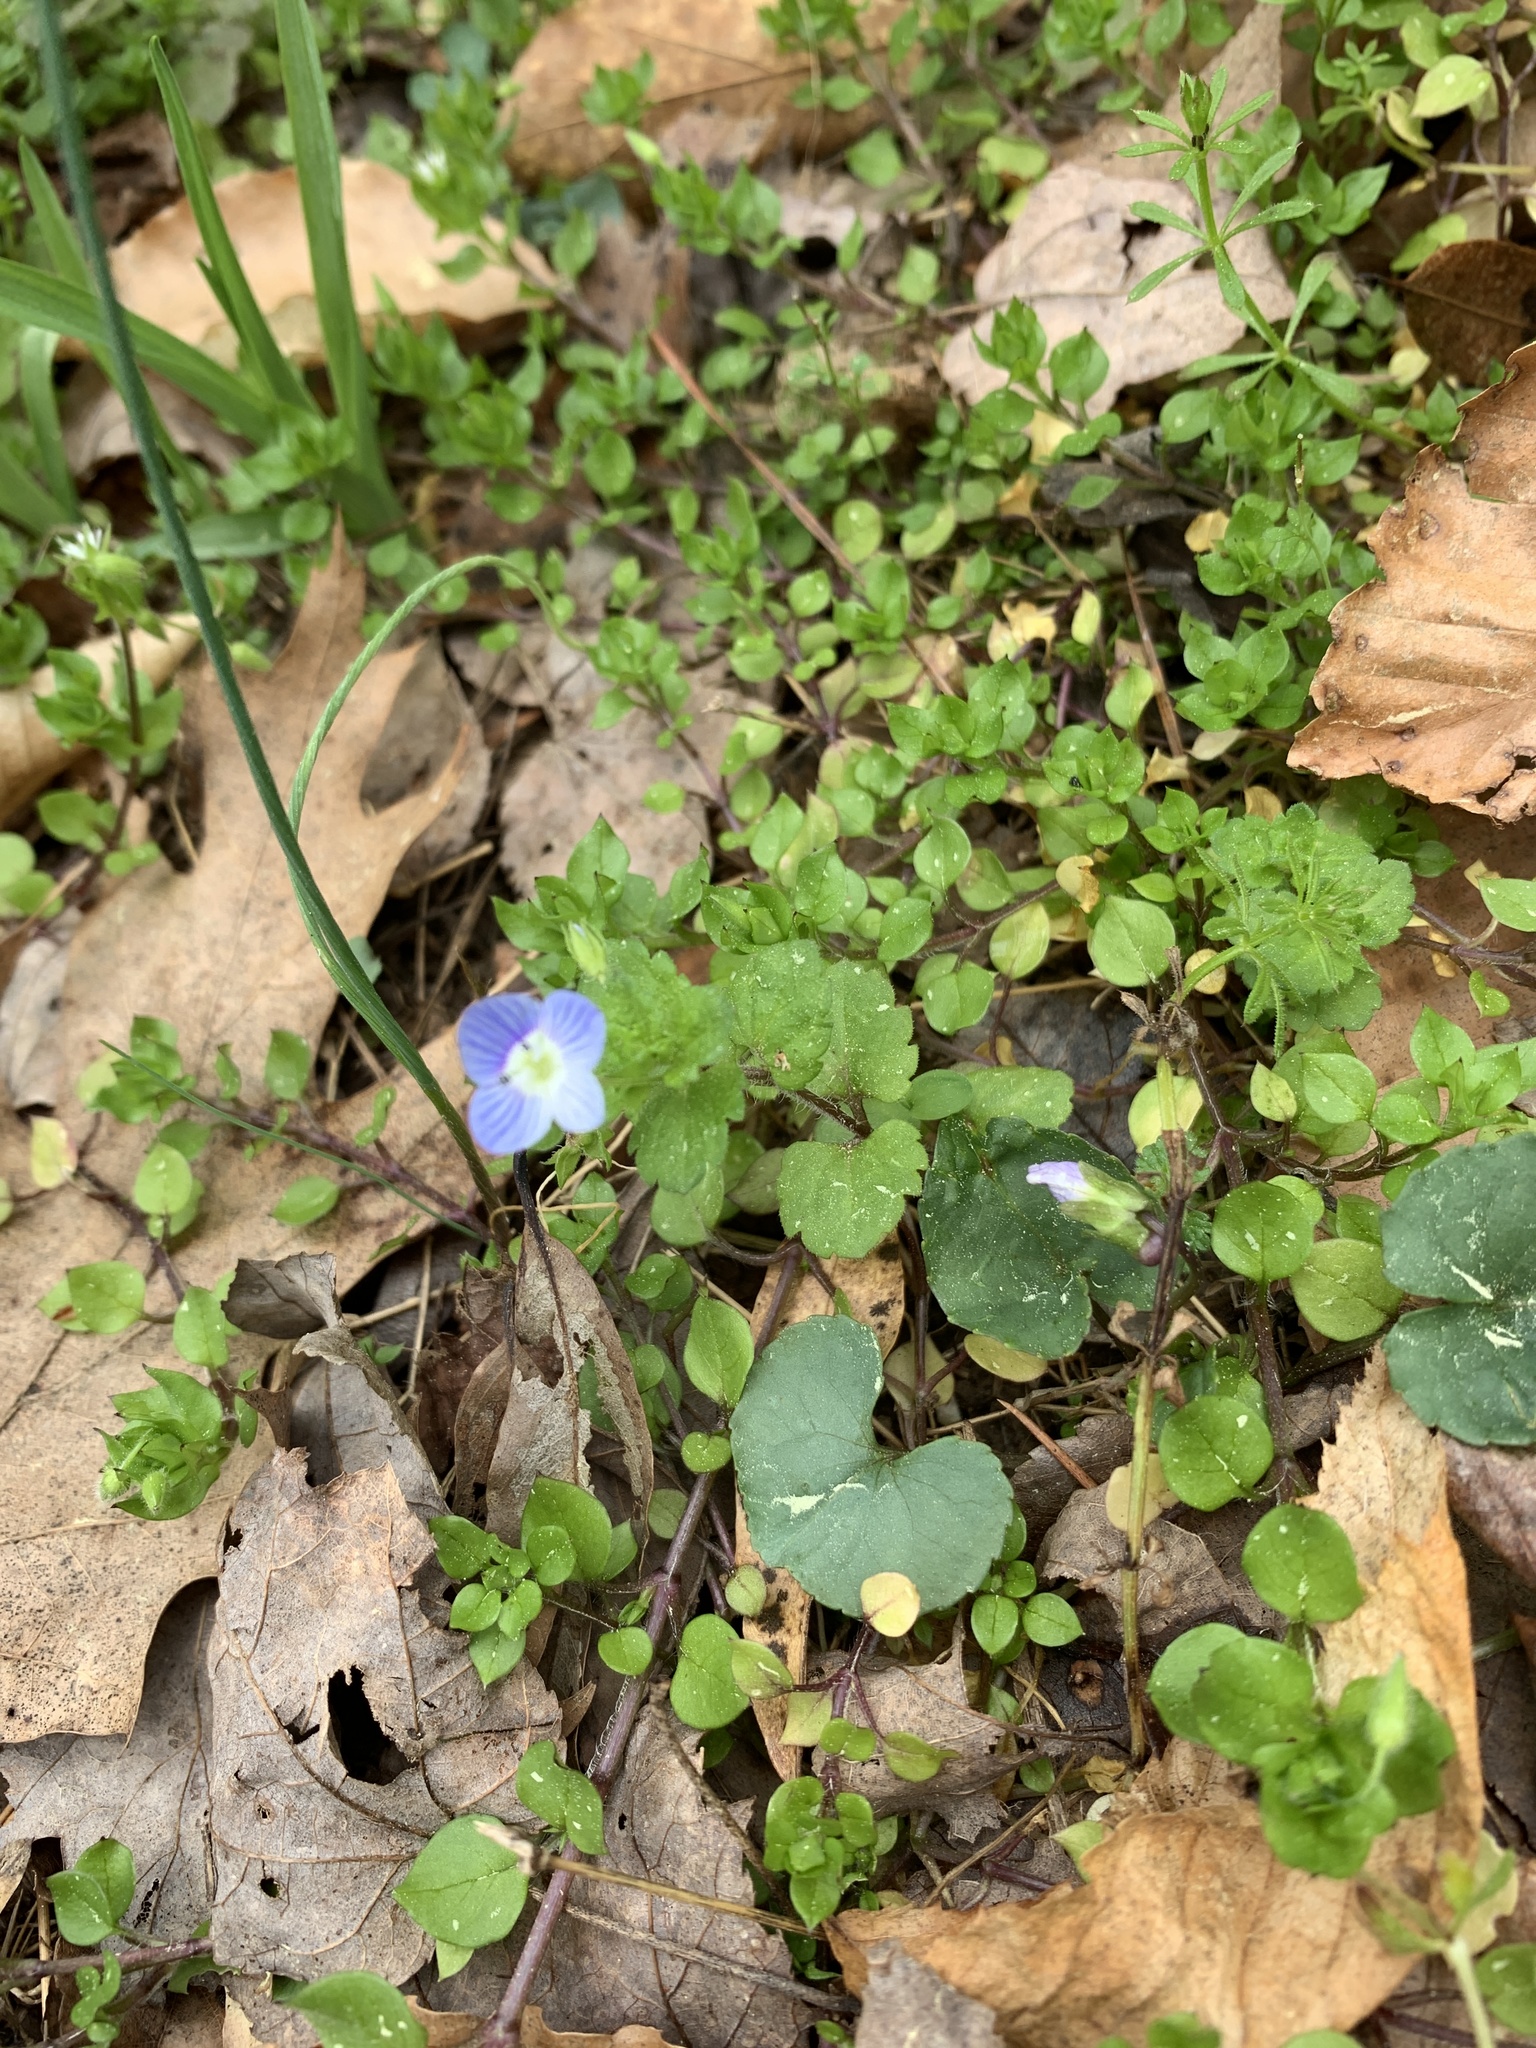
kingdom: Plantae
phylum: Tracheophyta
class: Magnoliopsida
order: Lamiales
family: Plantaginaceae
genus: Veronica
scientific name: Veronica persica
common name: Common field-speedwell
